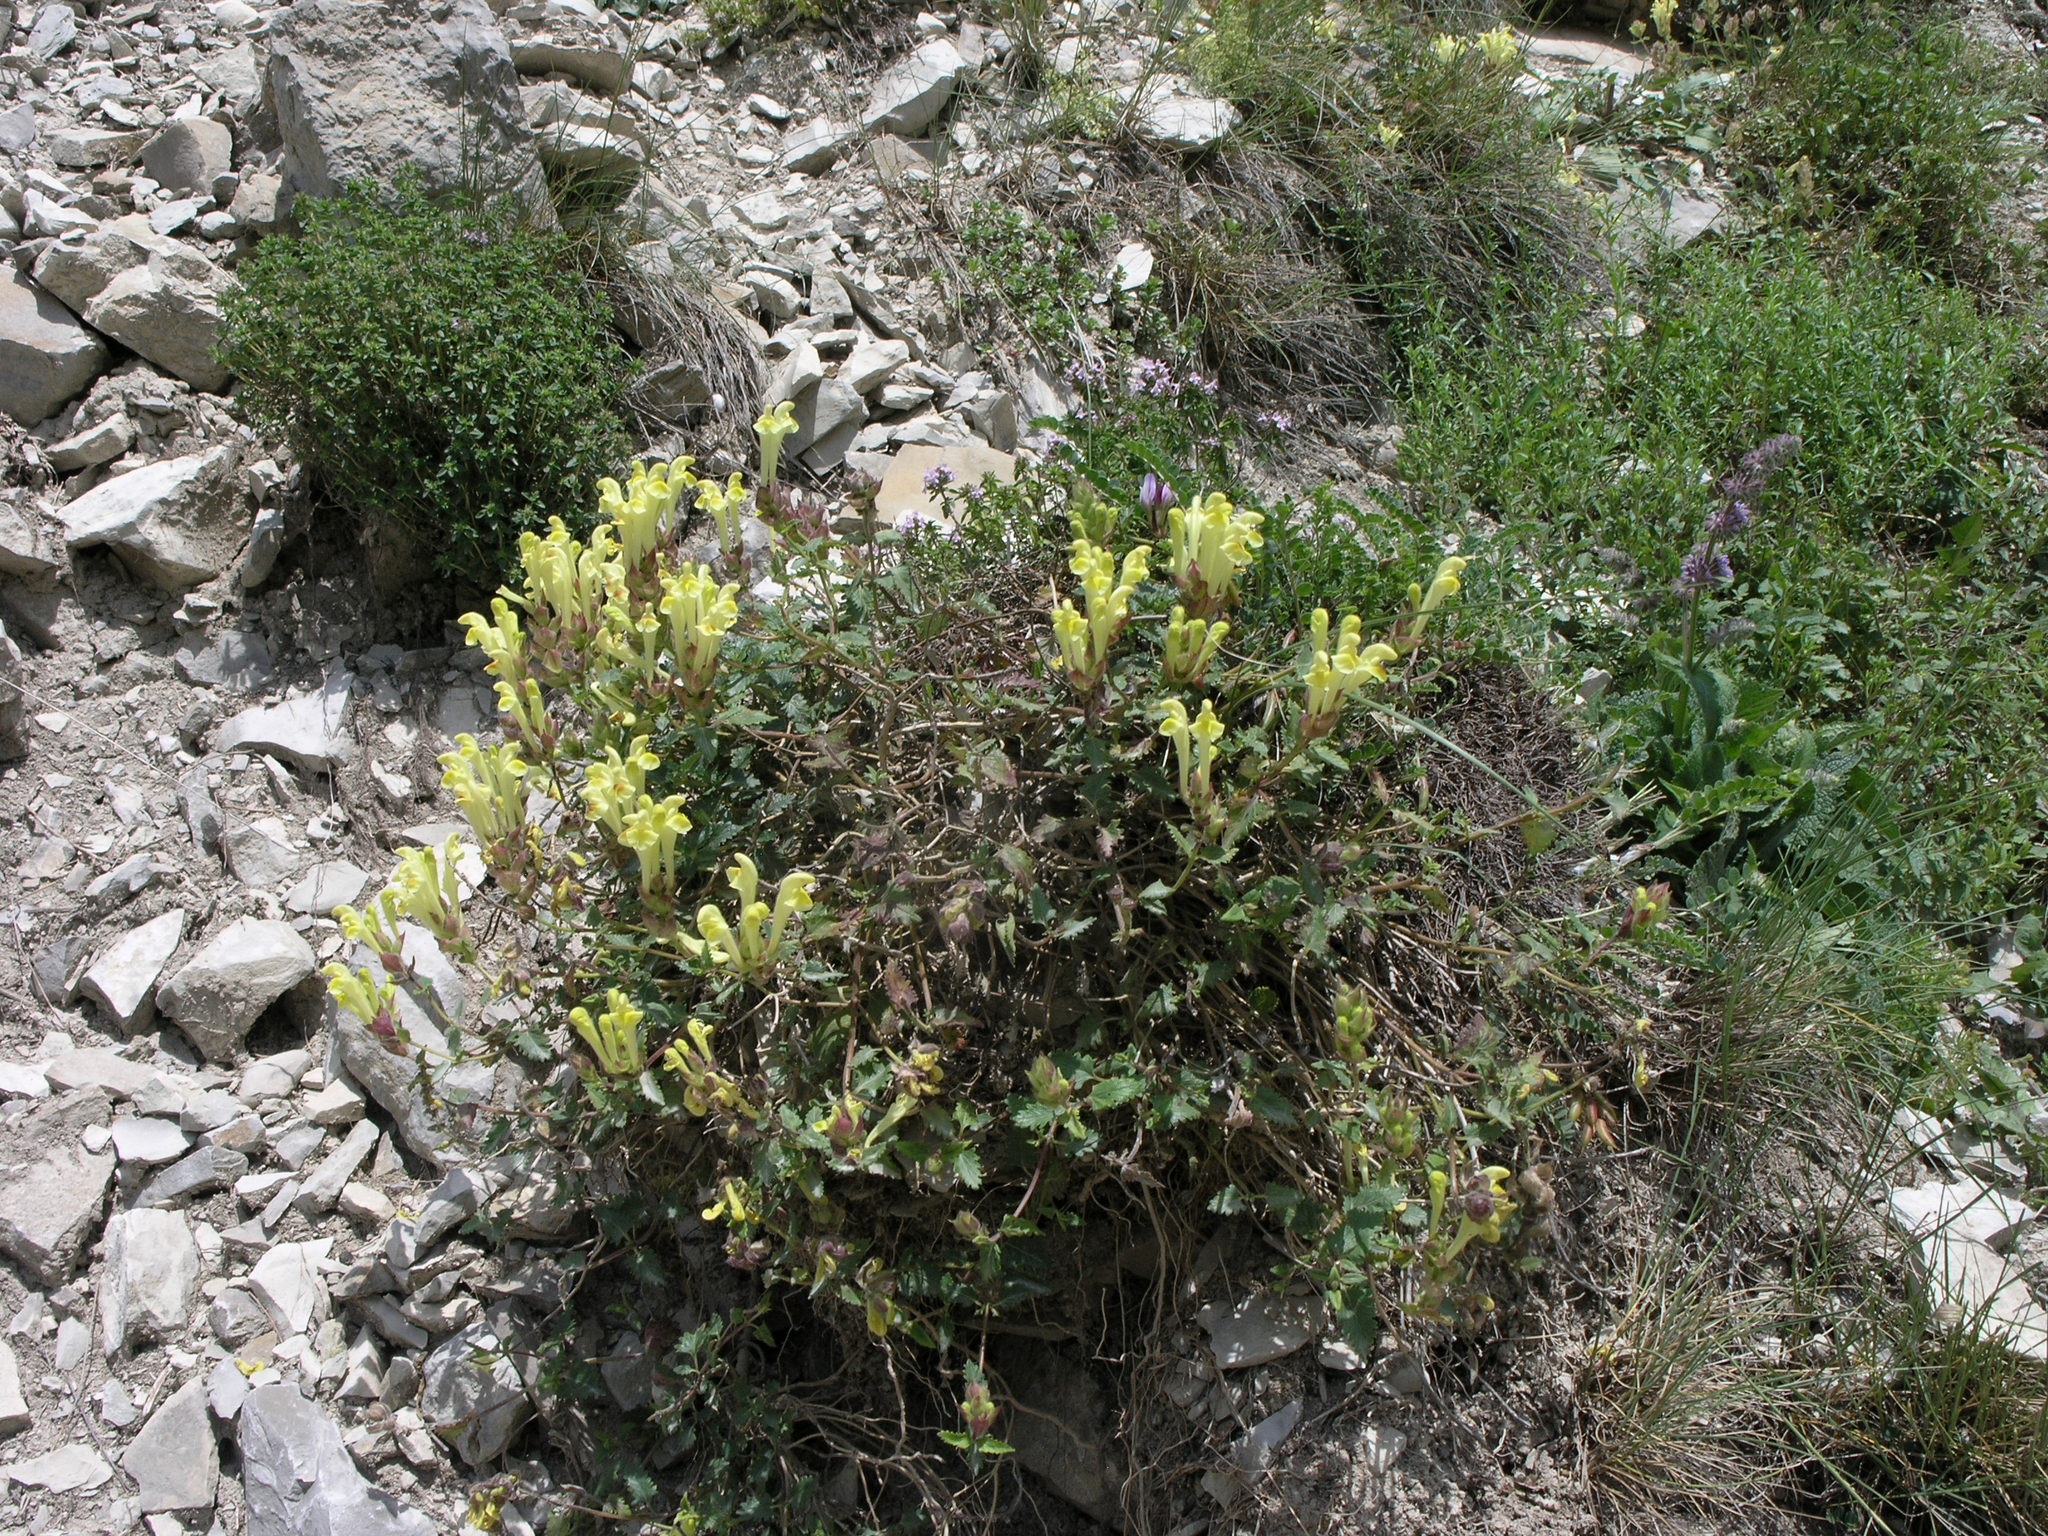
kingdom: Plantae
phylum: Tracheophyta
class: Magnoliopsida
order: Lamiales
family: Lamiaceae
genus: Scutellaria
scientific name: Scutellaria oreophila
